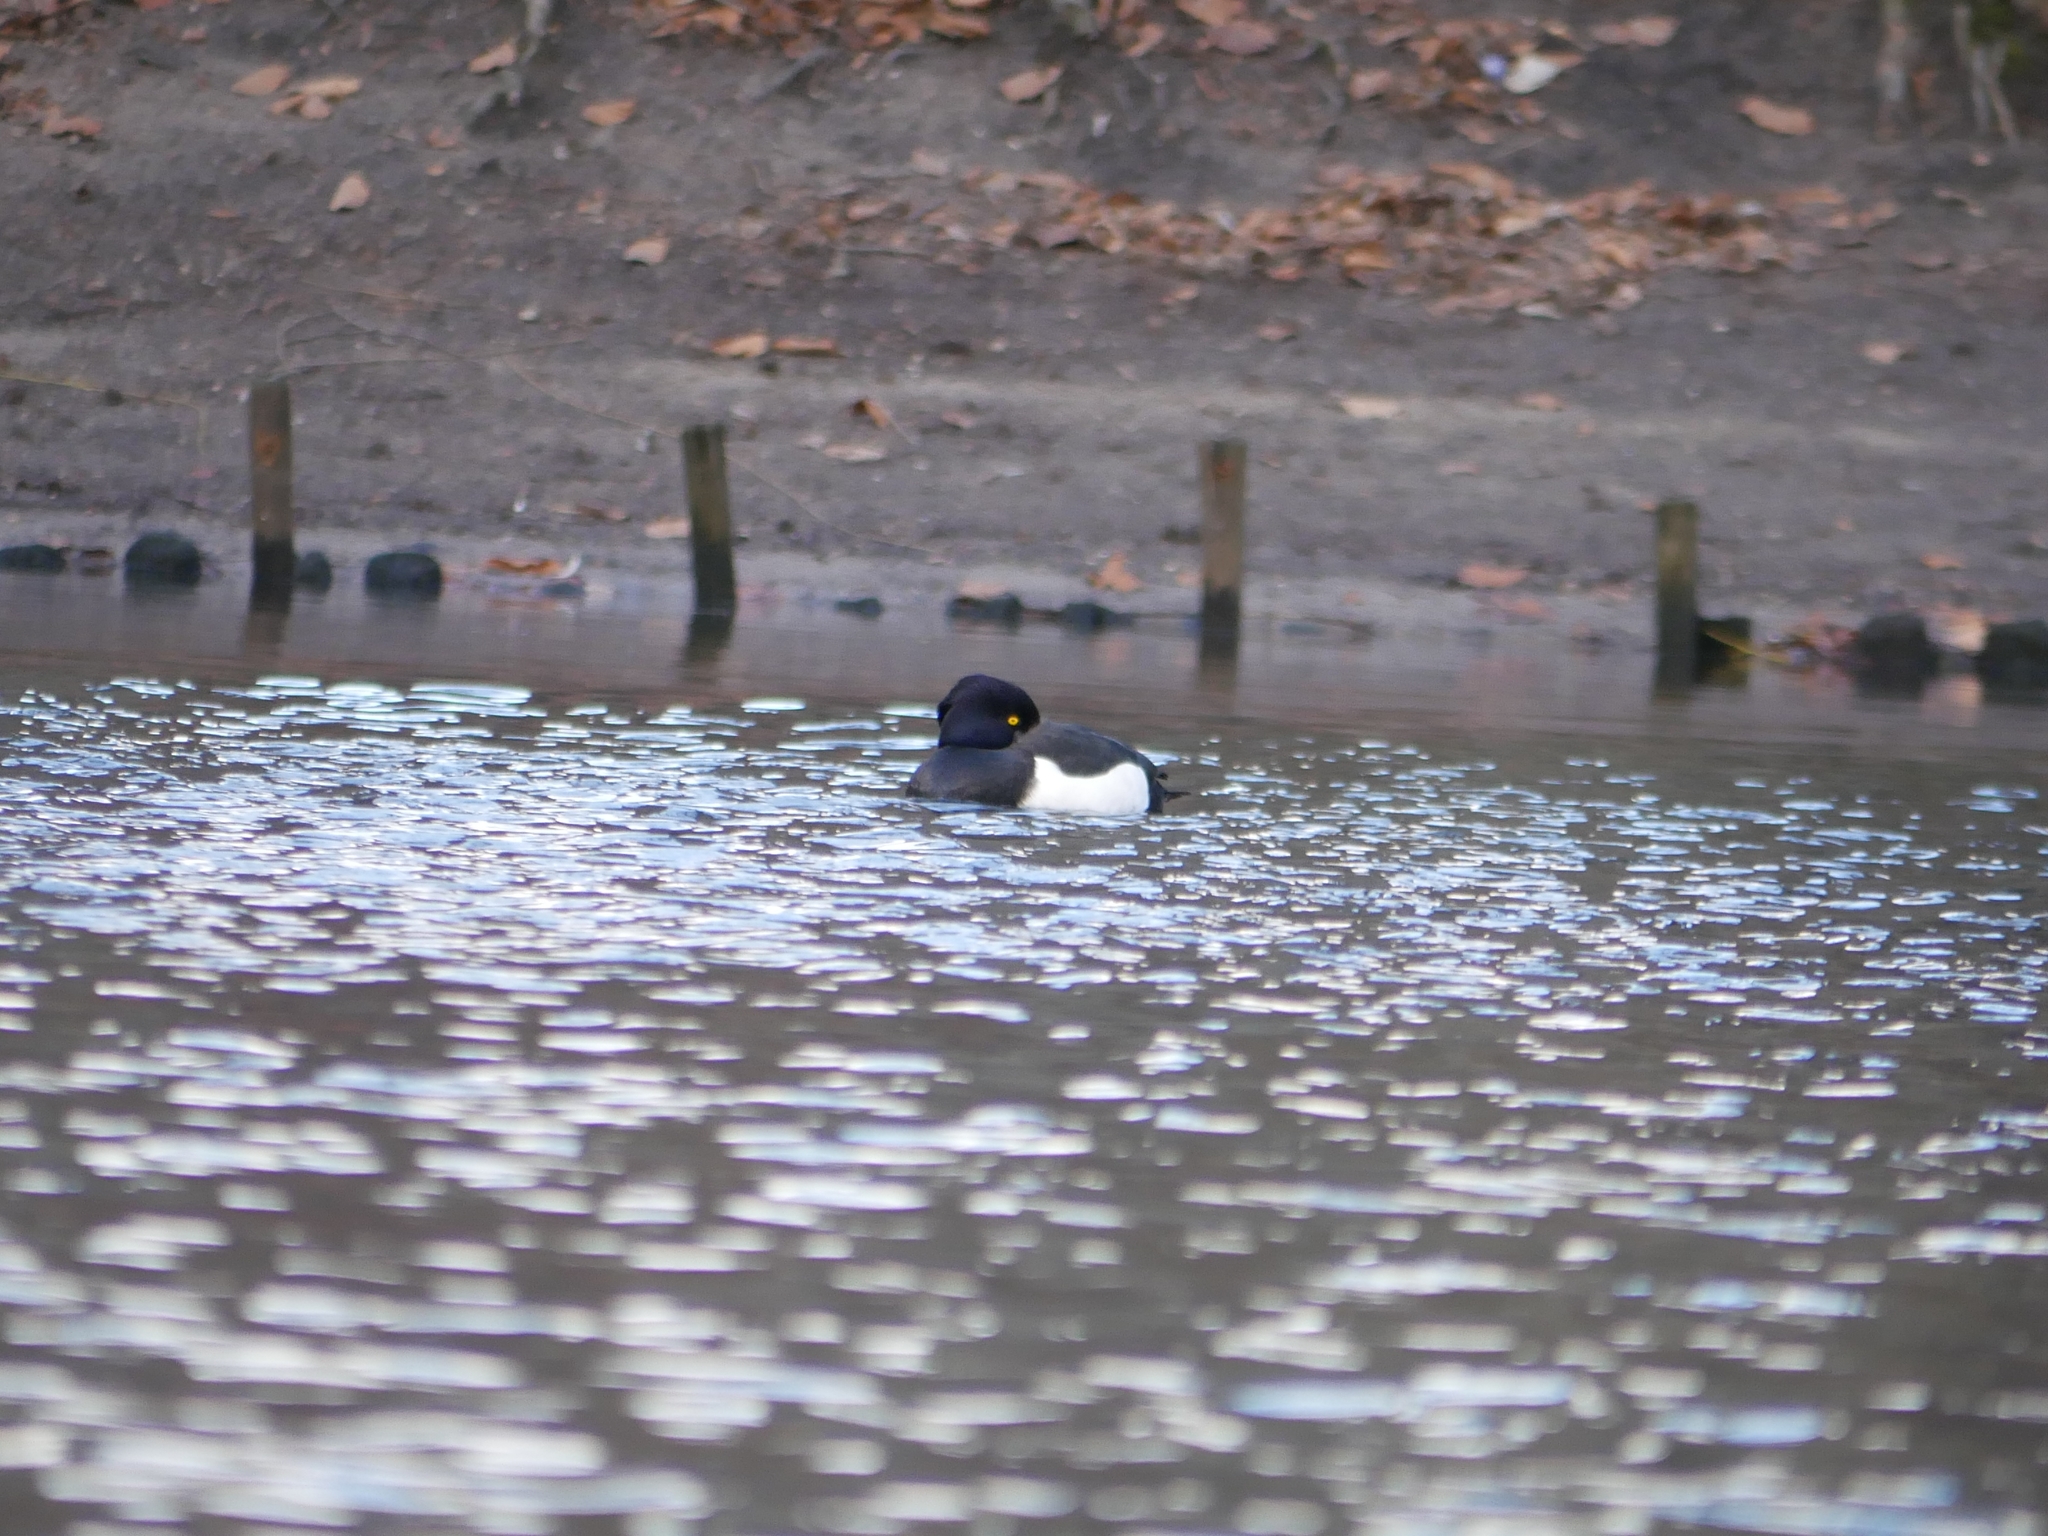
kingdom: Animalia
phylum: Chordata
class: Aves
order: Anseriformes
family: Anatidae
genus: Aythya
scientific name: Aythya fuligula
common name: Tufted duck
